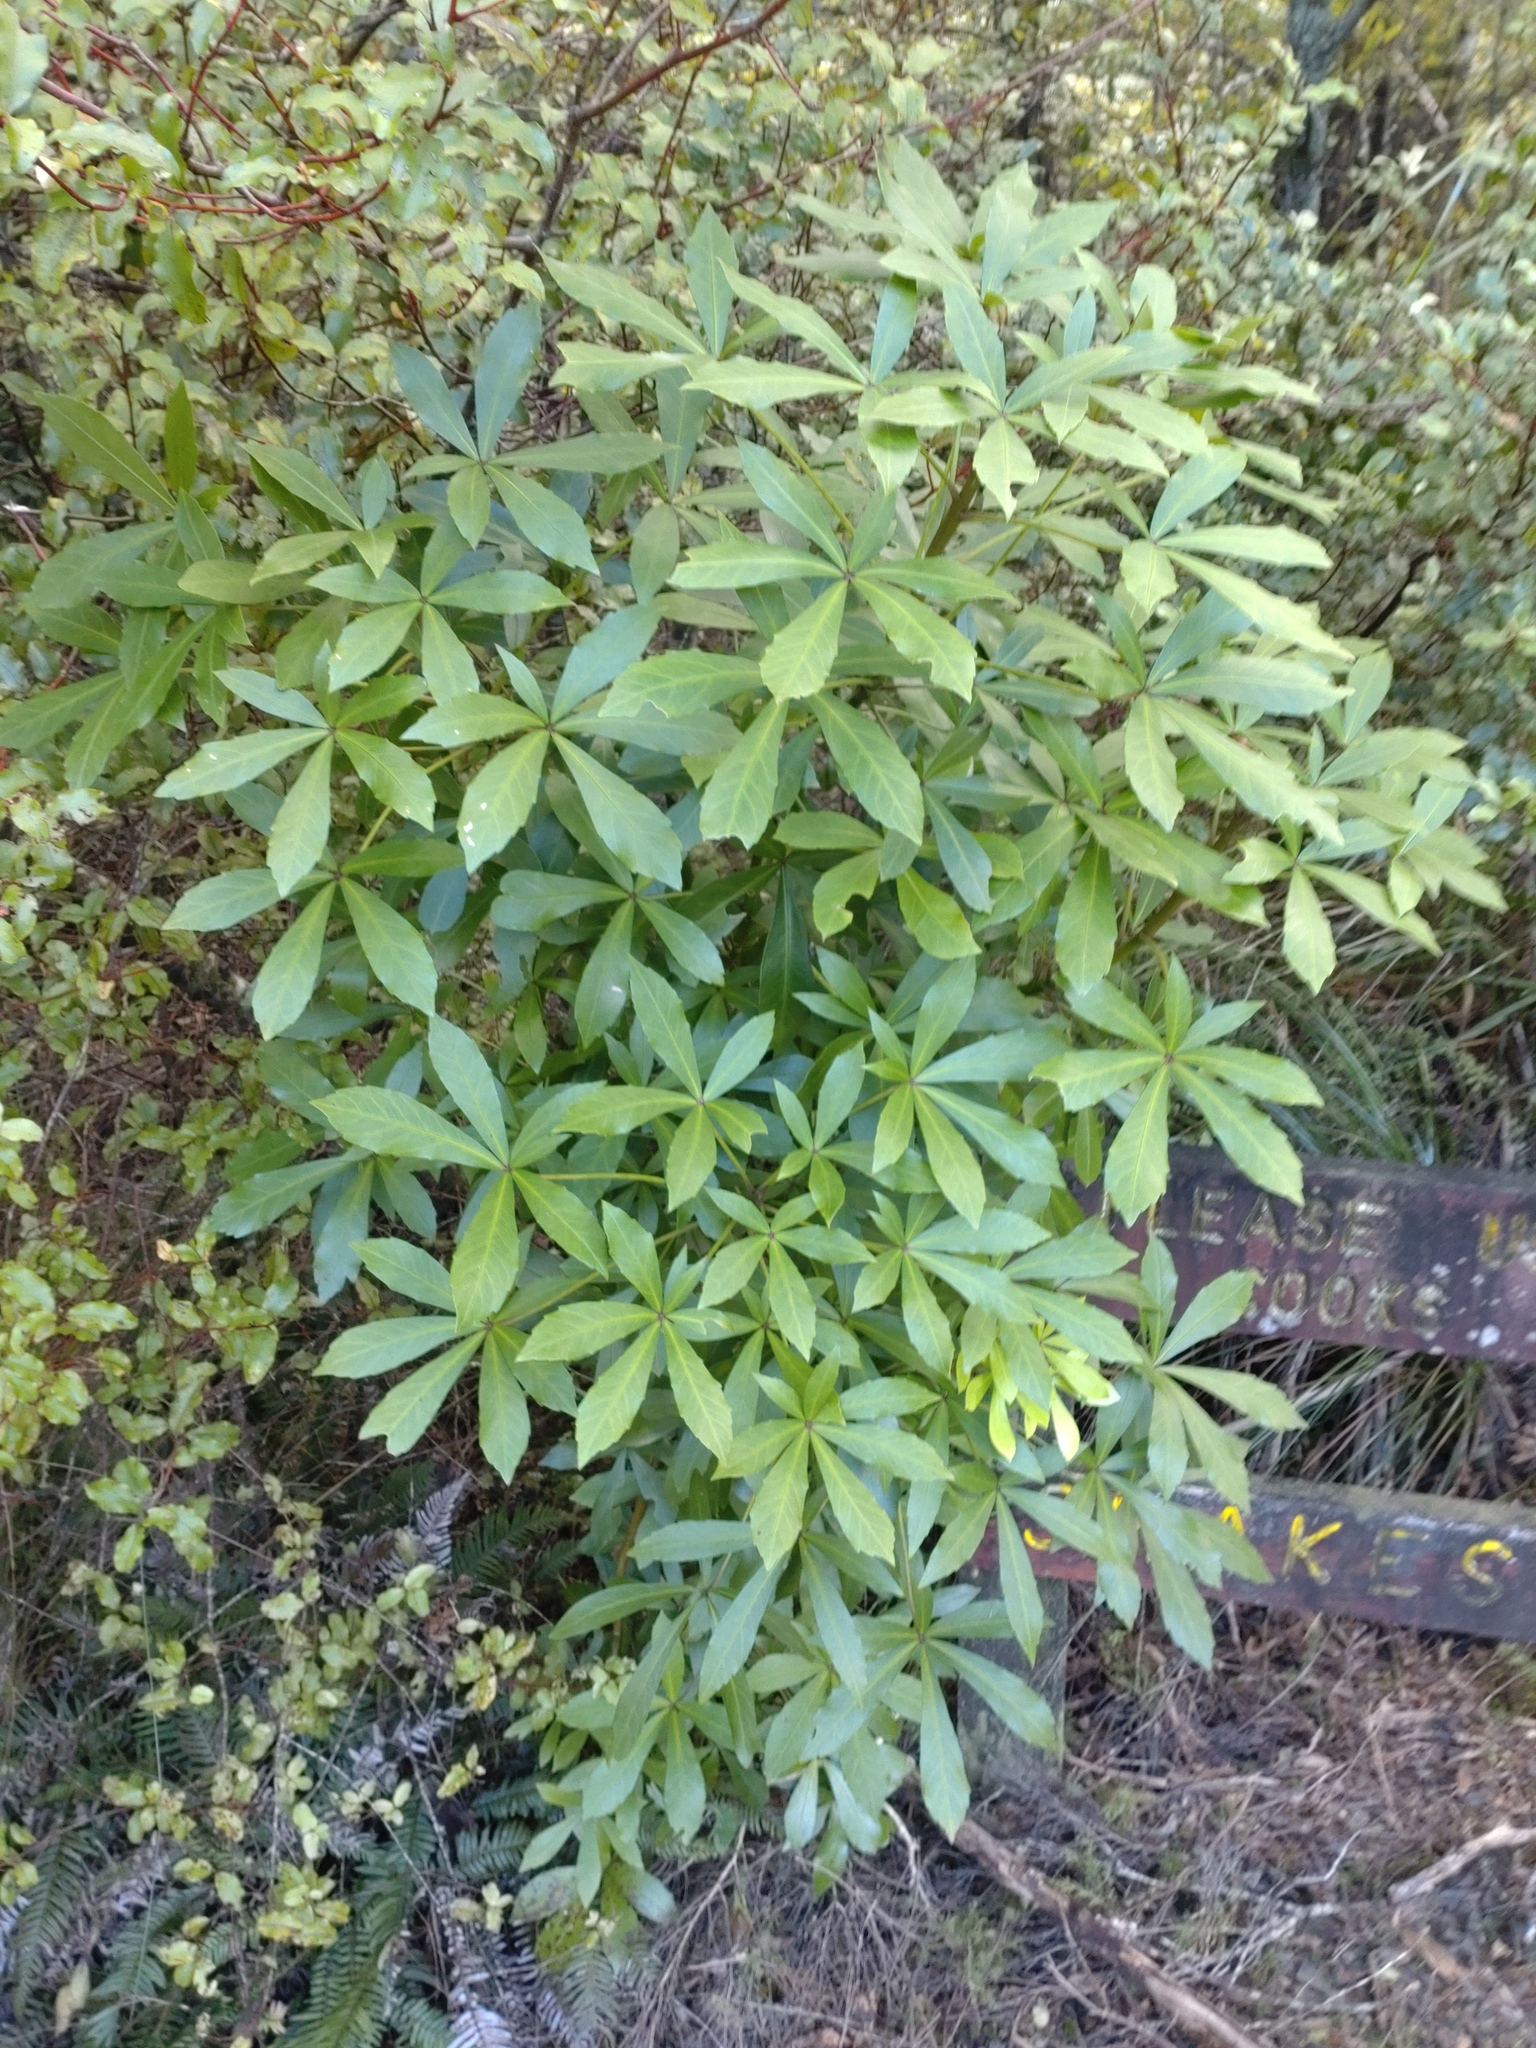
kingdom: Plantae
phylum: Tracheophyta
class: Magnoliopsida
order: Apiales
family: Araliaceae
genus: Pseudopanax
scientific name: Pseudopanax lessonii
